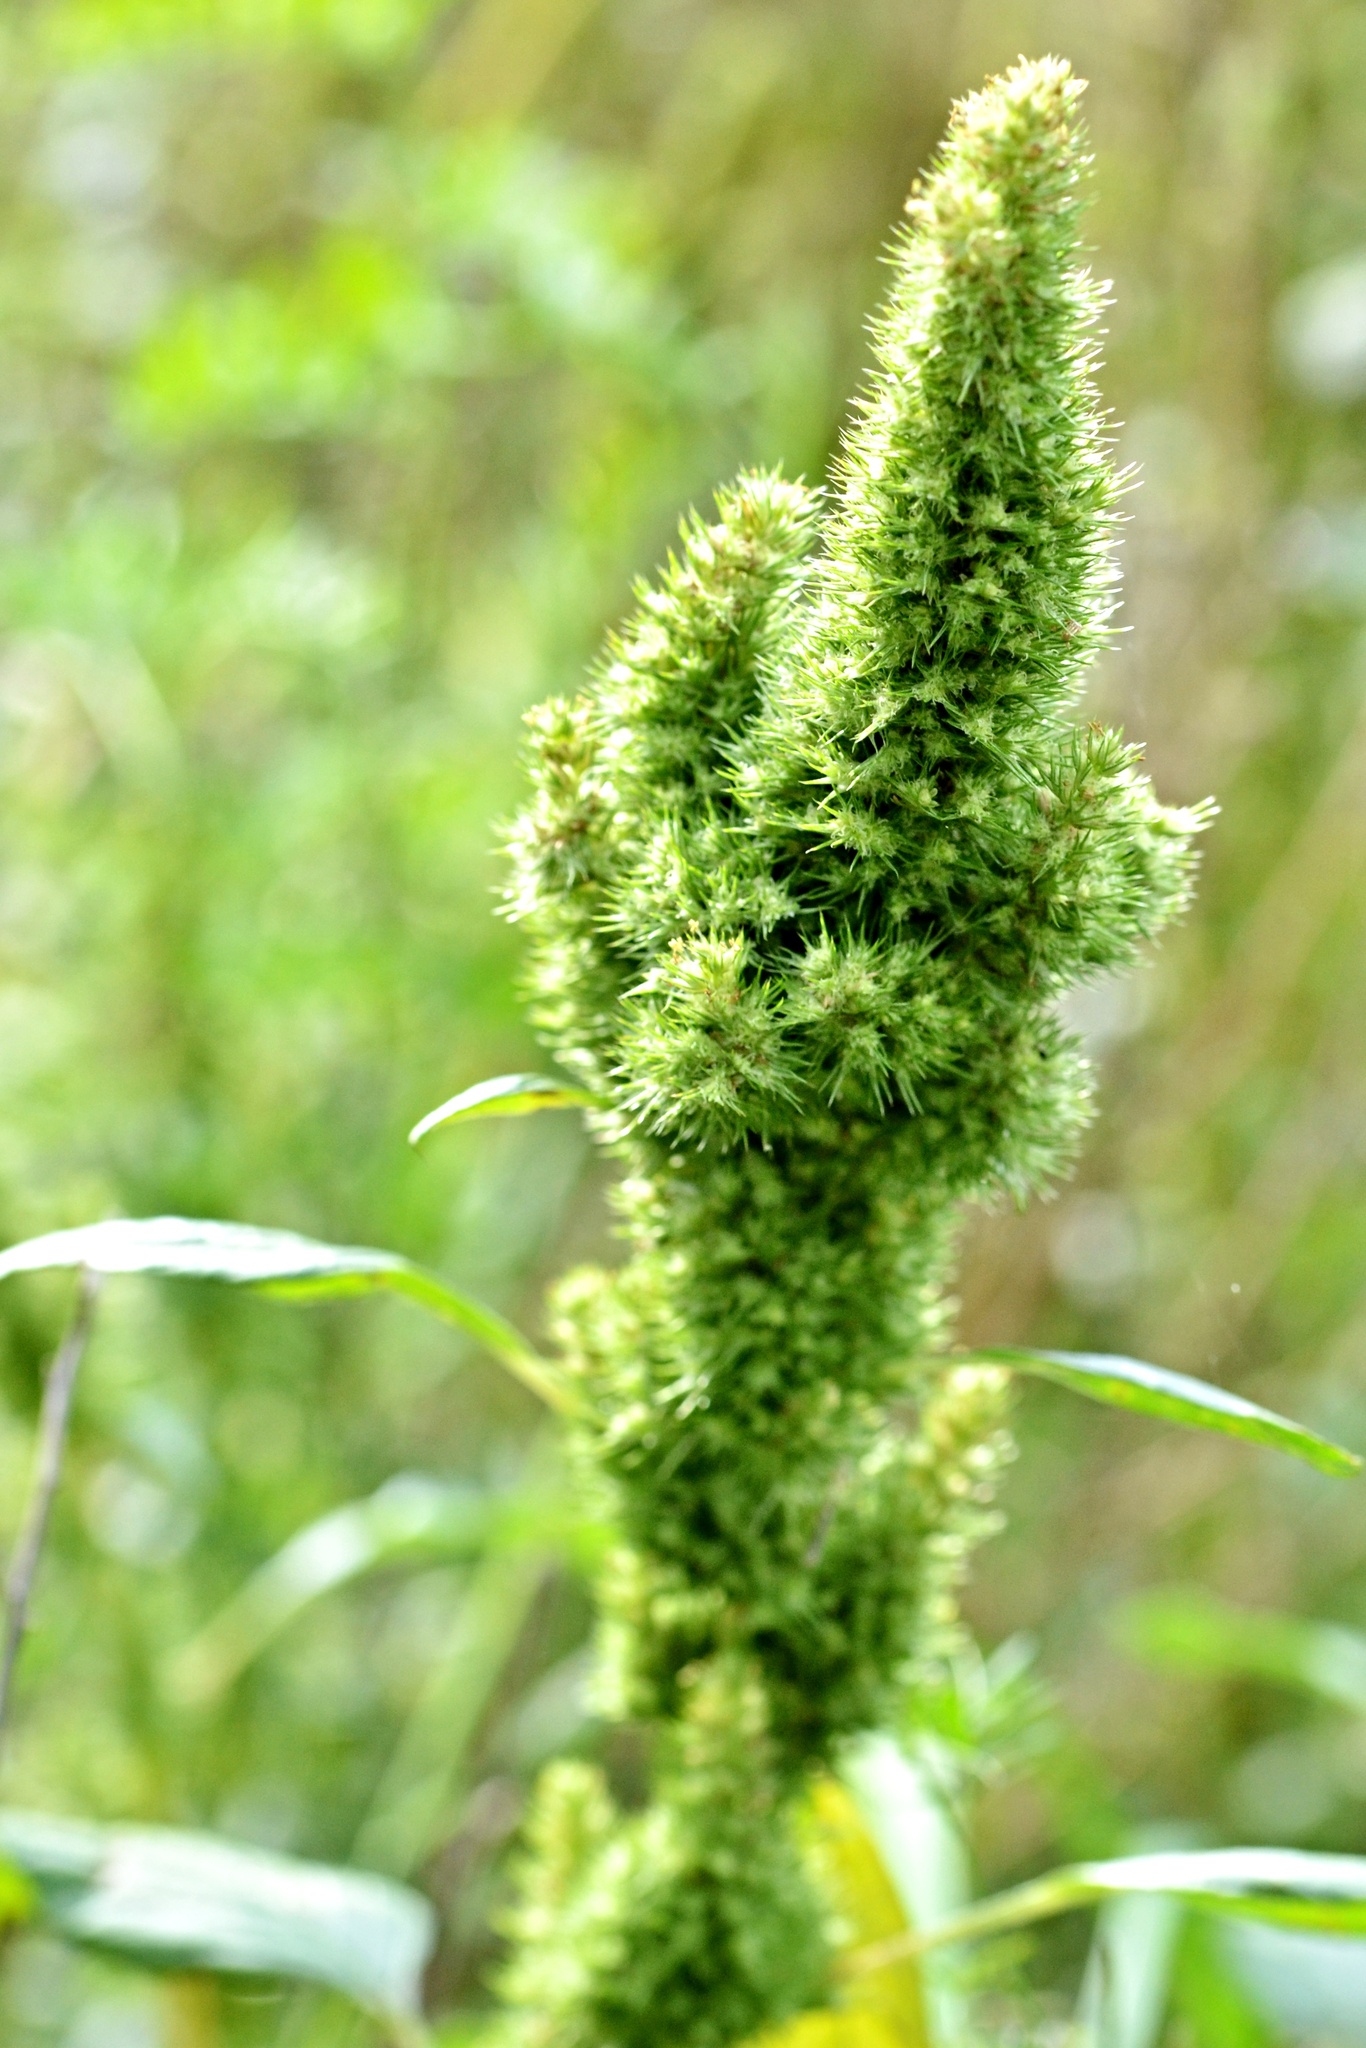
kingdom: Plantae
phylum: Tracheophyta
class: Magnoliopsida
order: Caryophyllales
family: Amaranthaceae
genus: Amaranthus
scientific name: Amaranthus retroflexus
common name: Redroot amaranth
